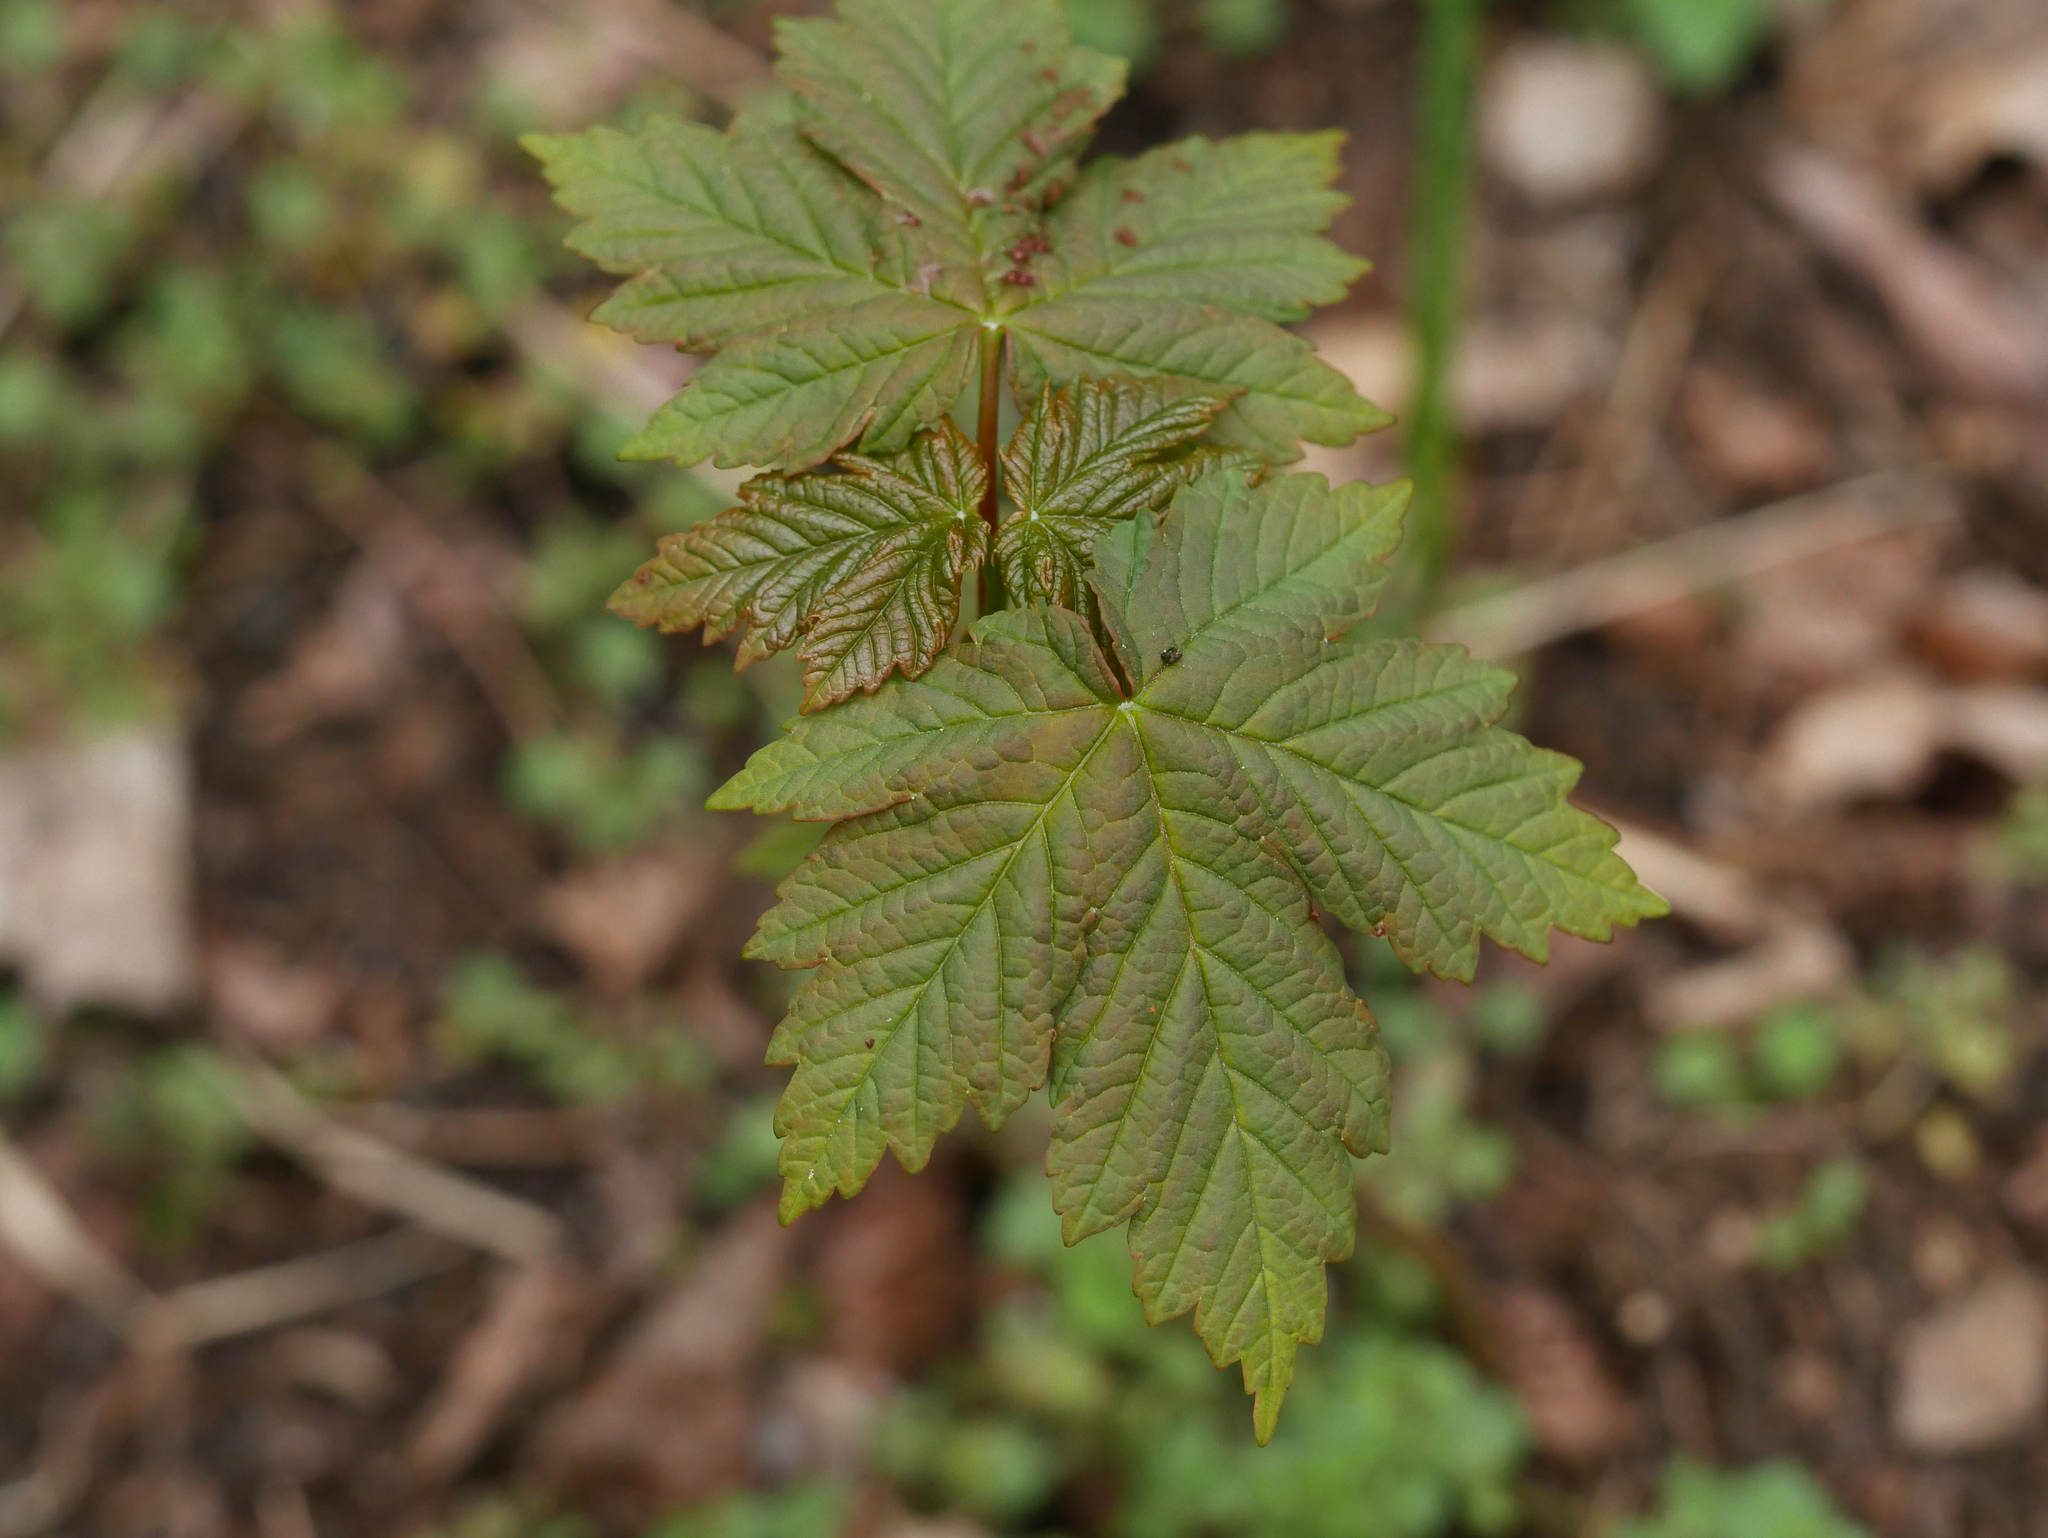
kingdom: Plantae
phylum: Tracheophyta
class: Magnoliopsida
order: Sapindales
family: Sapindaceae
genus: Acer
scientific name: Acer pseudoplatanus
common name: Sycamore
